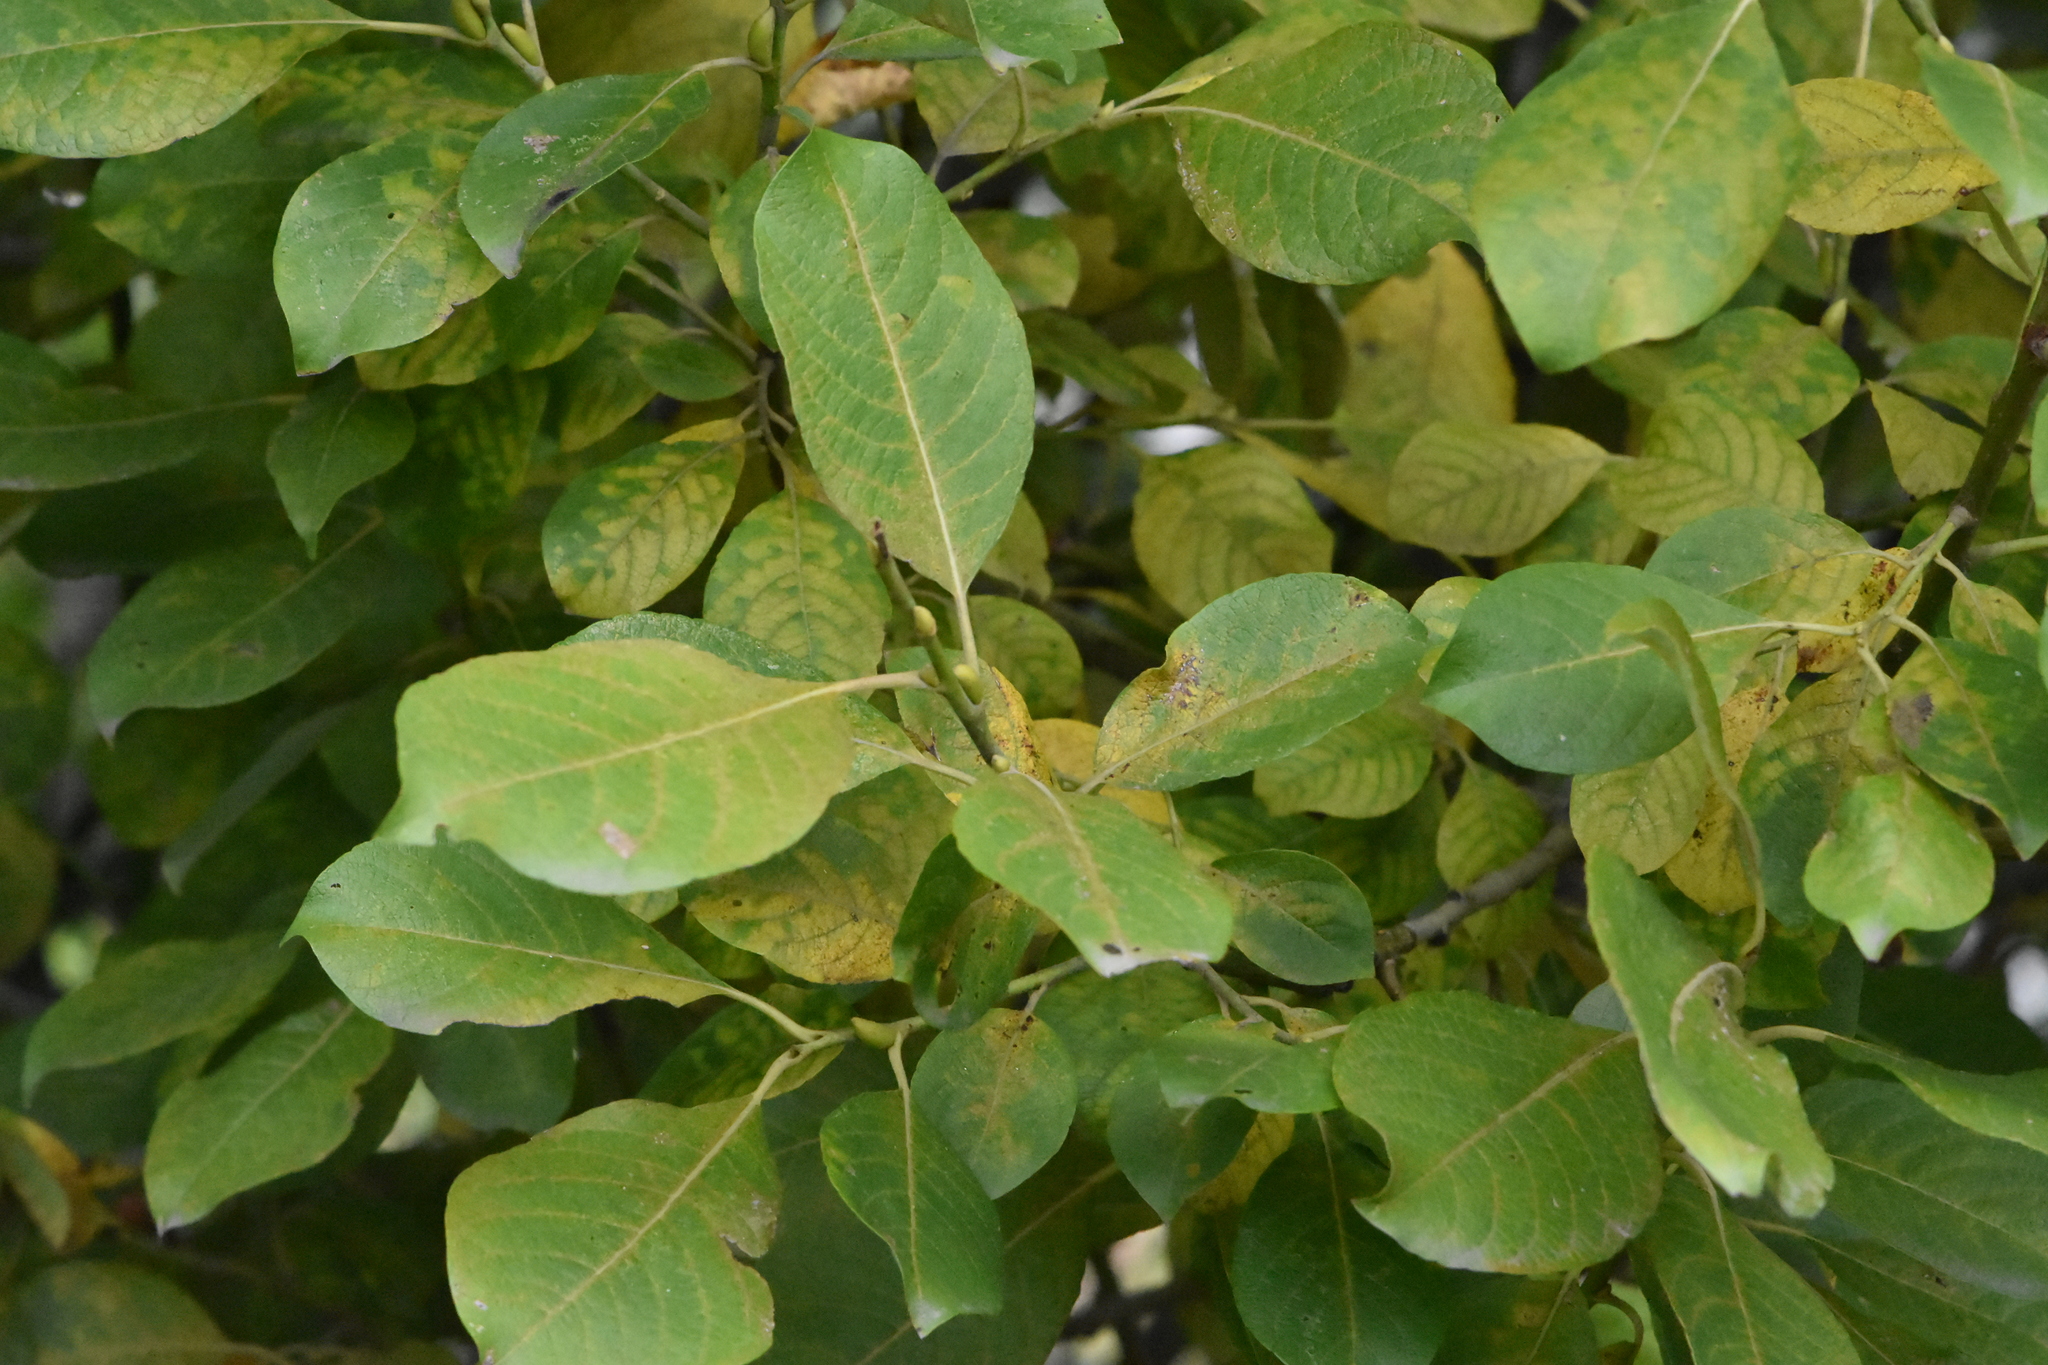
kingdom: Plantae
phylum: Tracheophyta
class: Magnoliopsida
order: Malpighiales
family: Salicaceae
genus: Salix
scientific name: Salix caprea
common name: Goat willow
